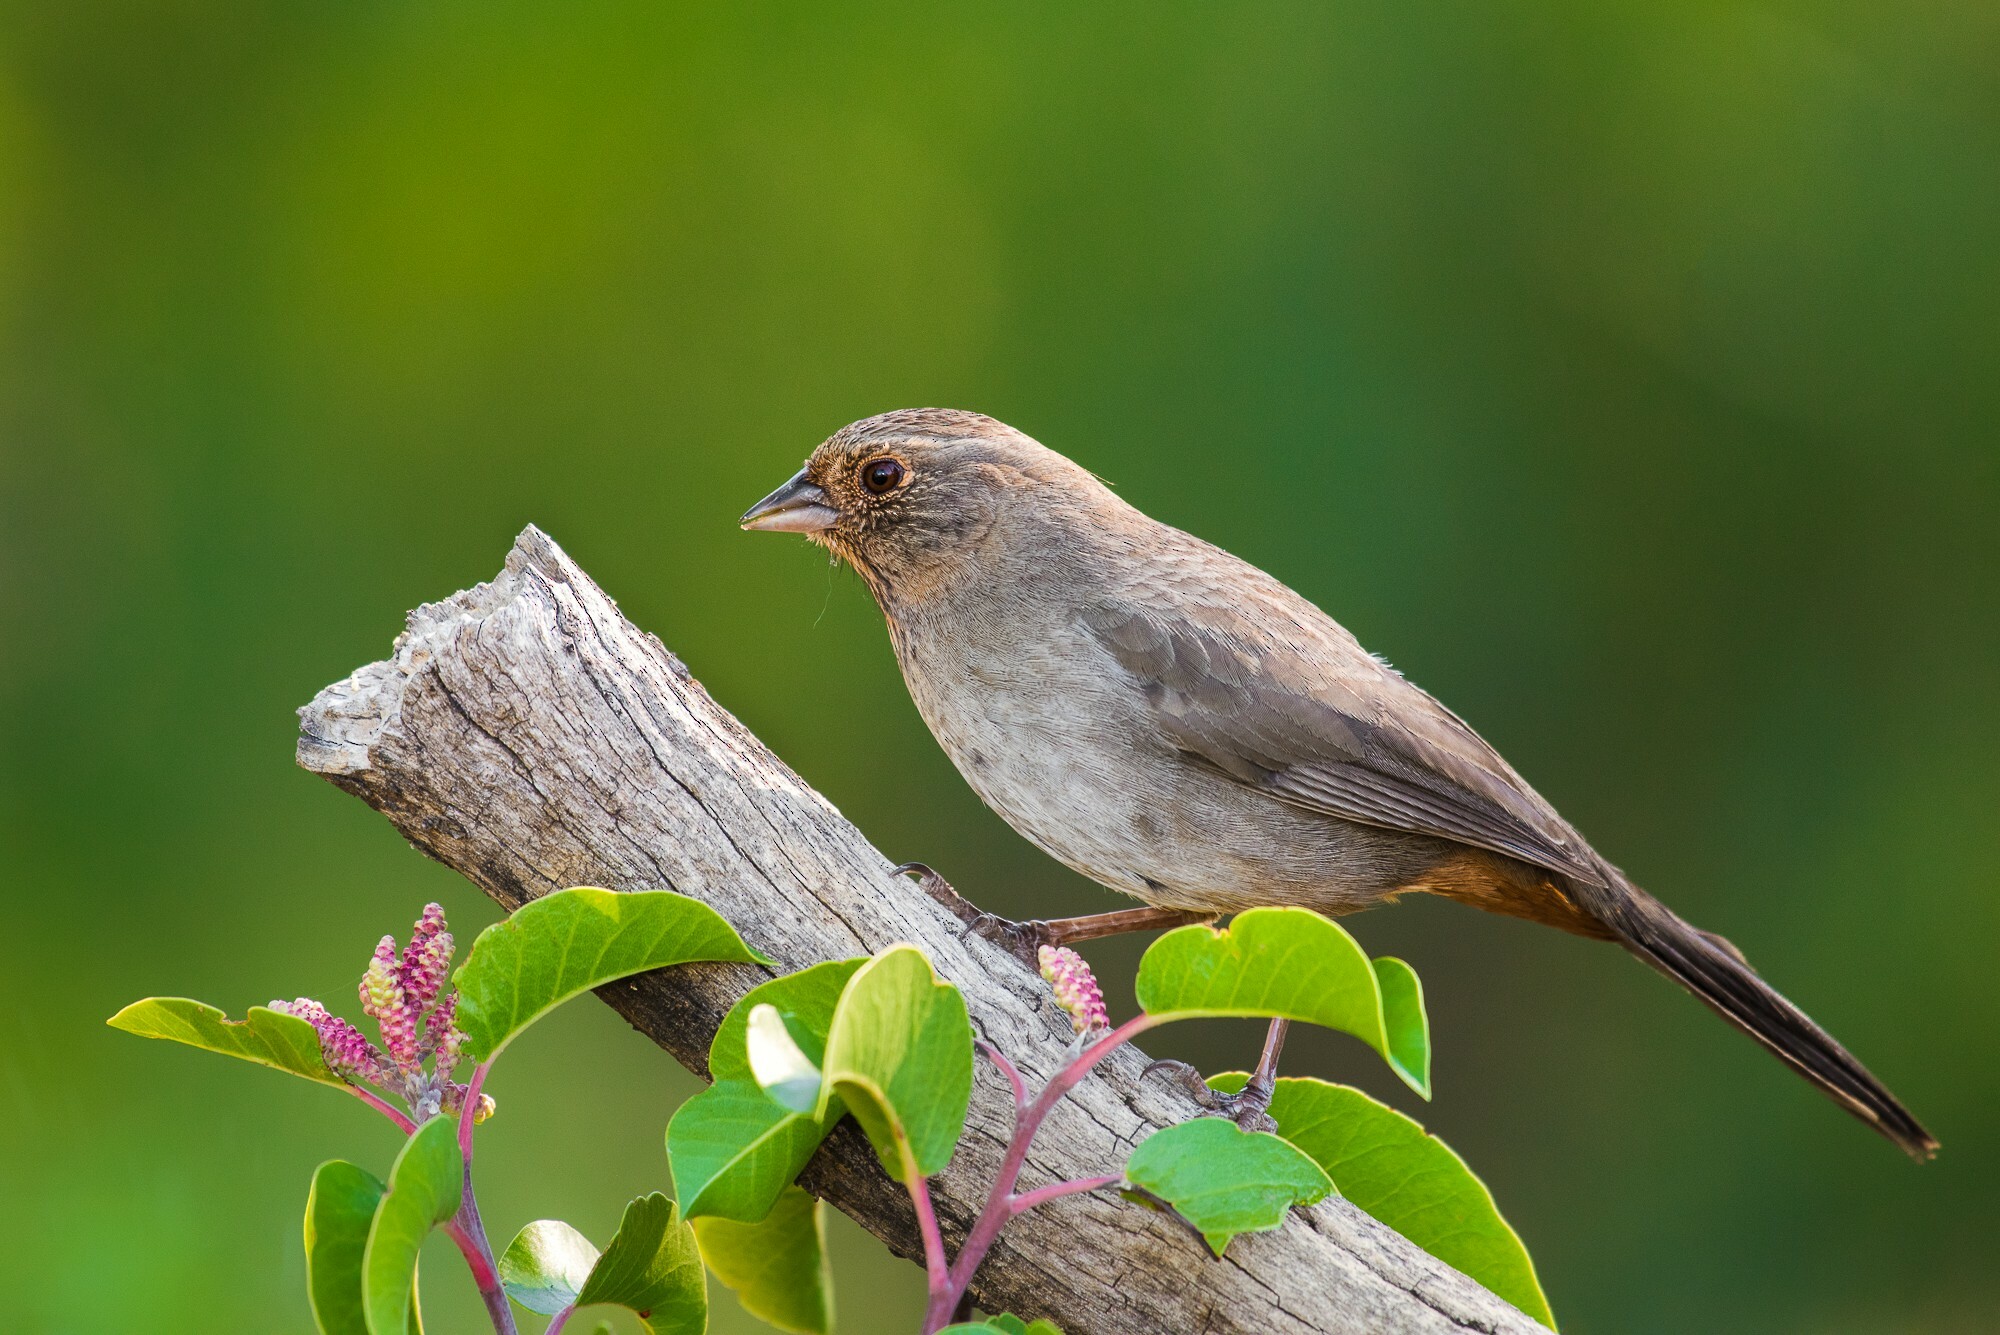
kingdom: Animalia
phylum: Chordata
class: Aves
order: Passeriformes
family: Passerellidae
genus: Melozone
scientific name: Melozone crissalis
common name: California towhee
